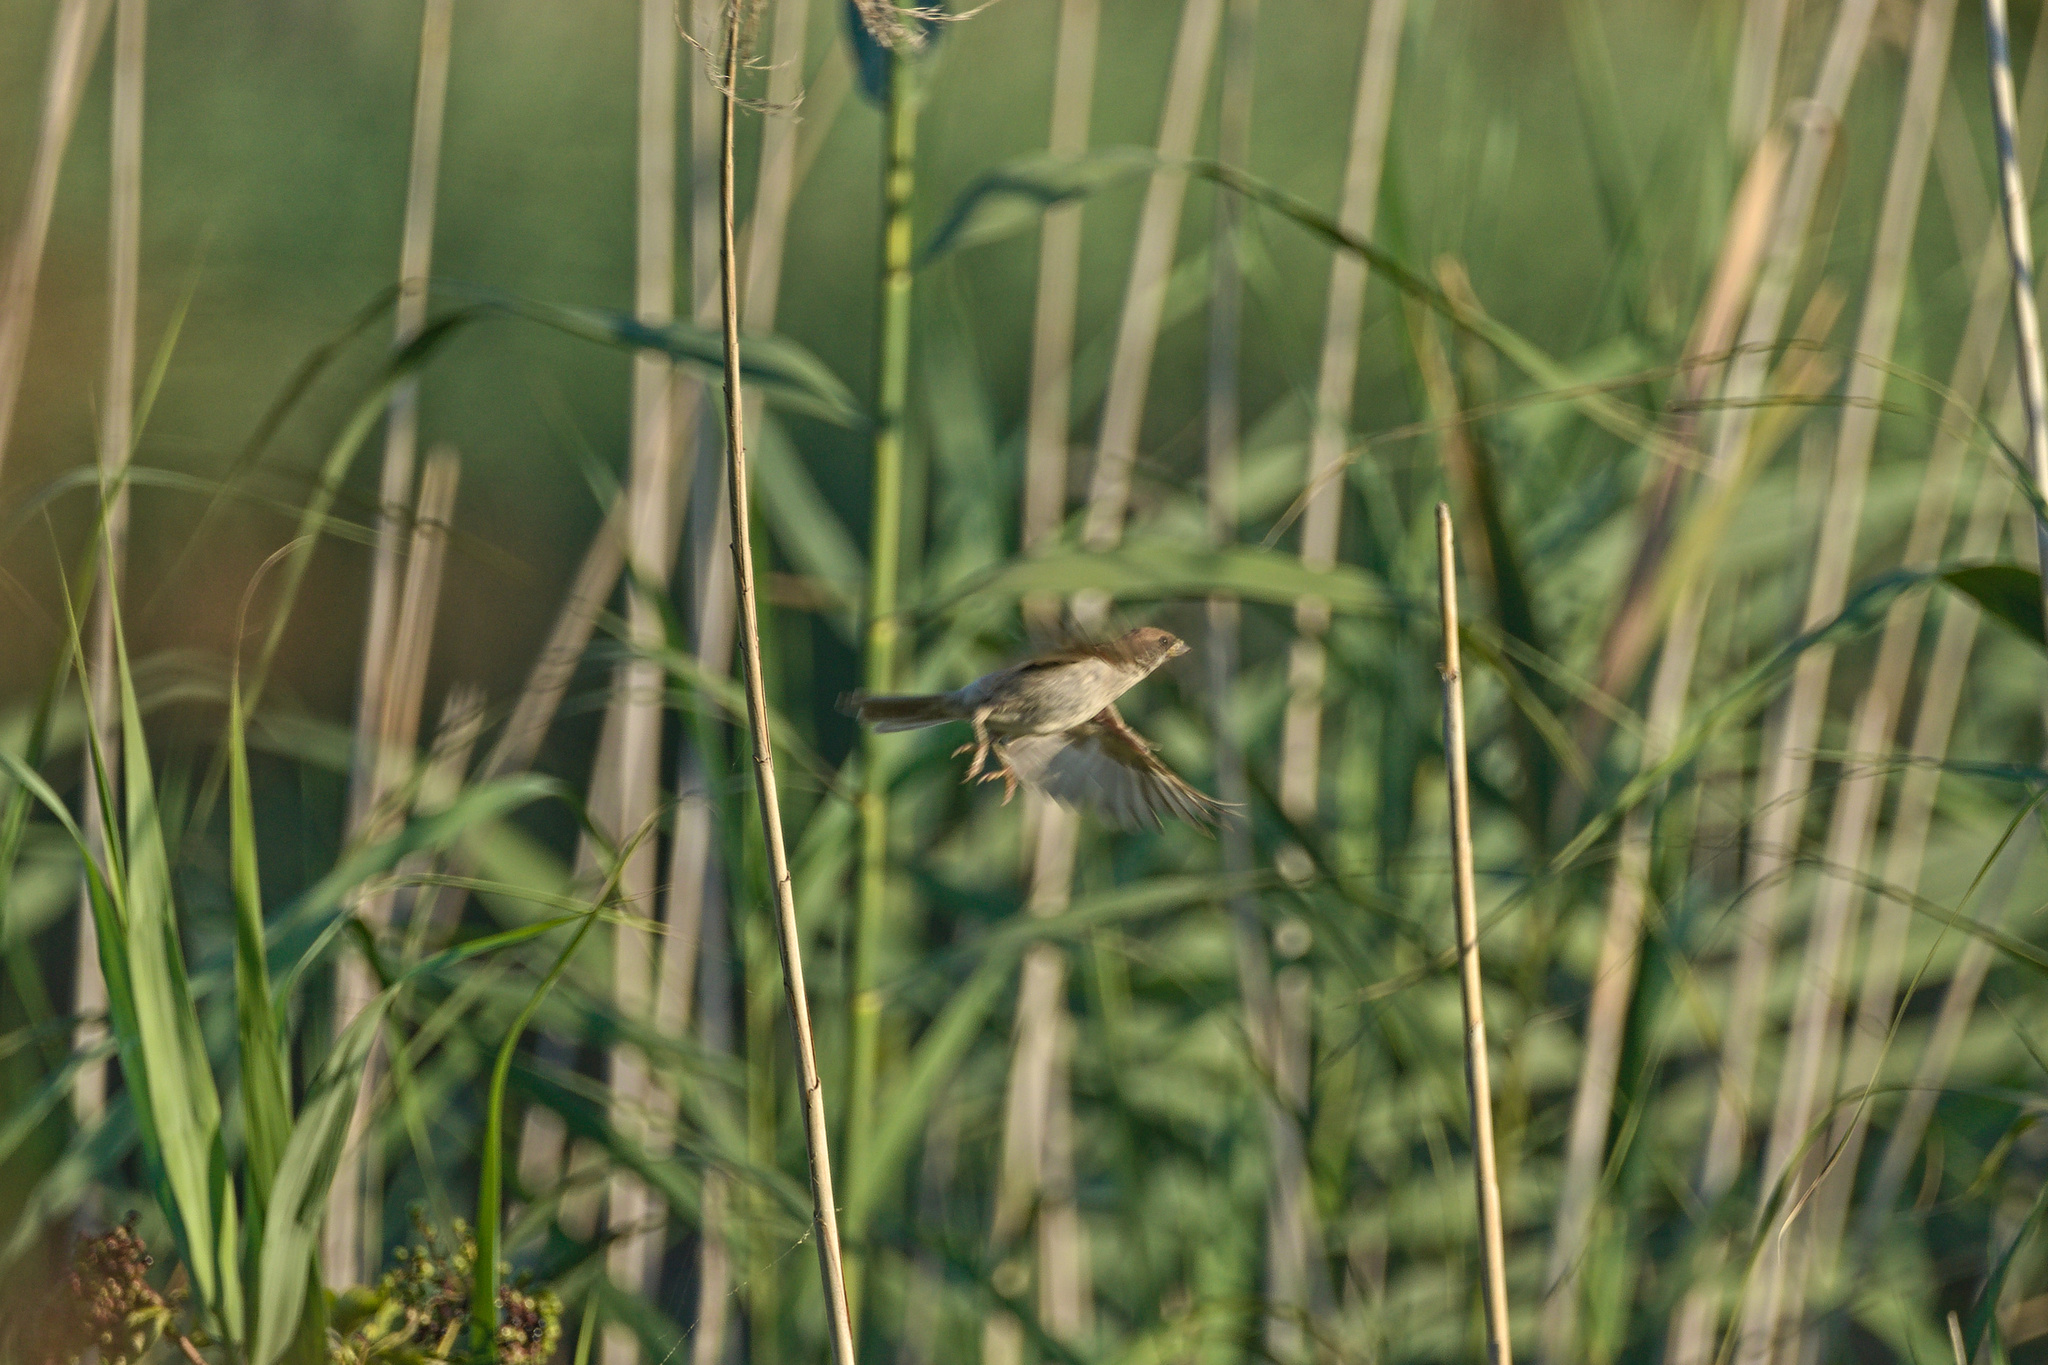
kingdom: Animalia
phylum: Chordata
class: Aves
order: Passeriformes
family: Passeridae
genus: Passer
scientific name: Passer montanus
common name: Eurasian tree sparrow
